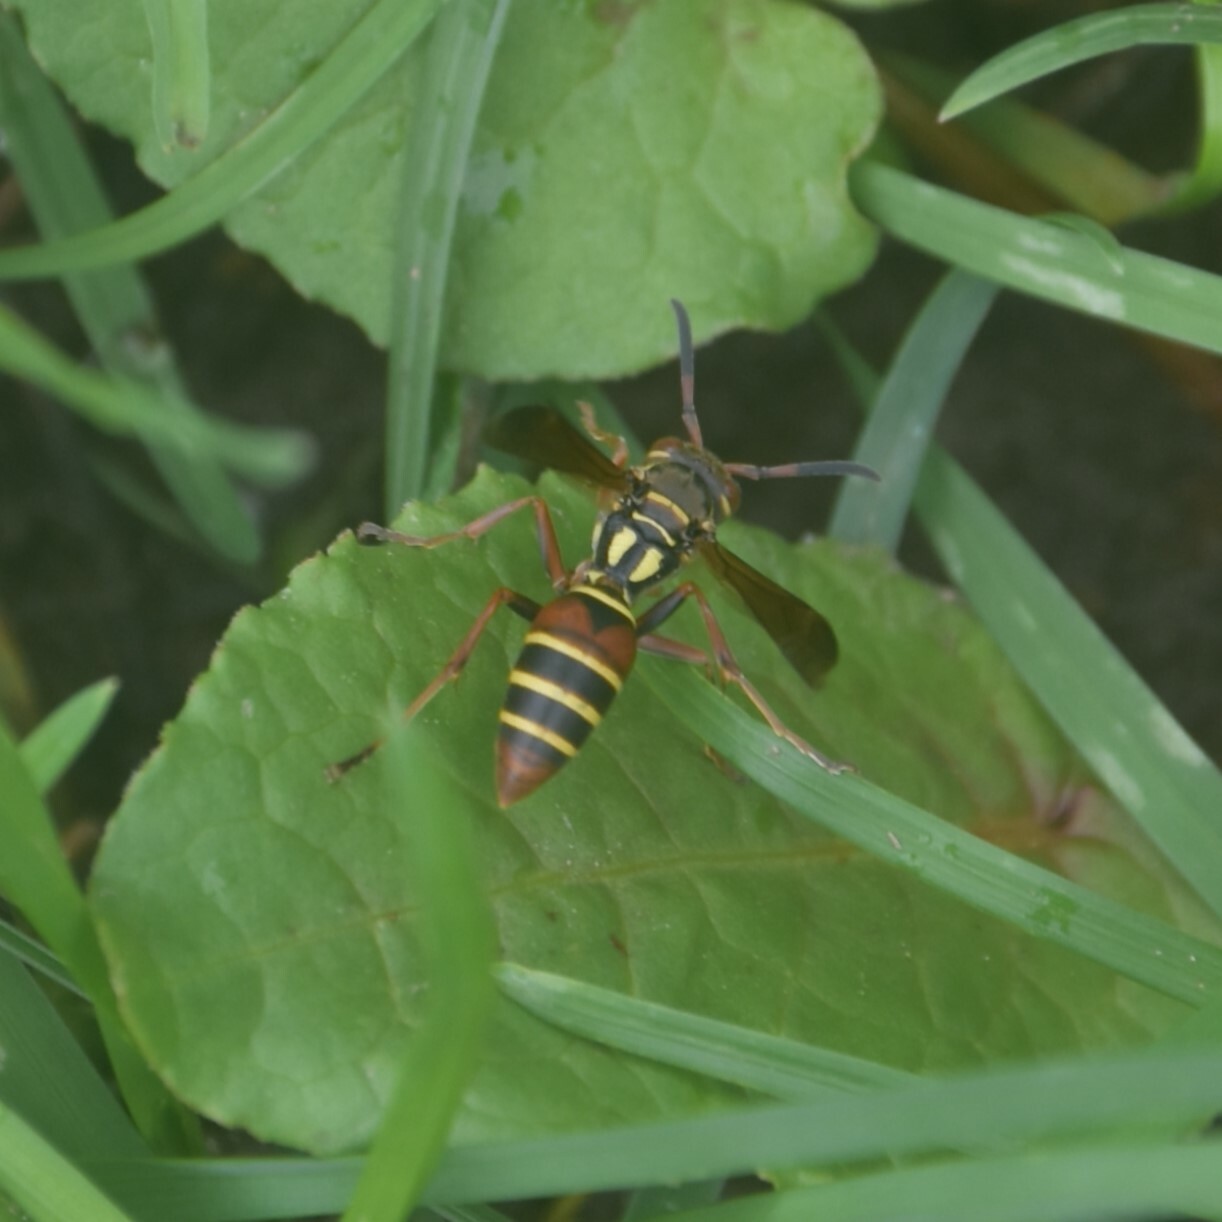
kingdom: Animalia
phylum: Arthropoda
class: Insecta
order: Hymenoptera
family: Eumenidae
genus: Knemodynerus
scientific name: Knemodynerus multimaculatus
